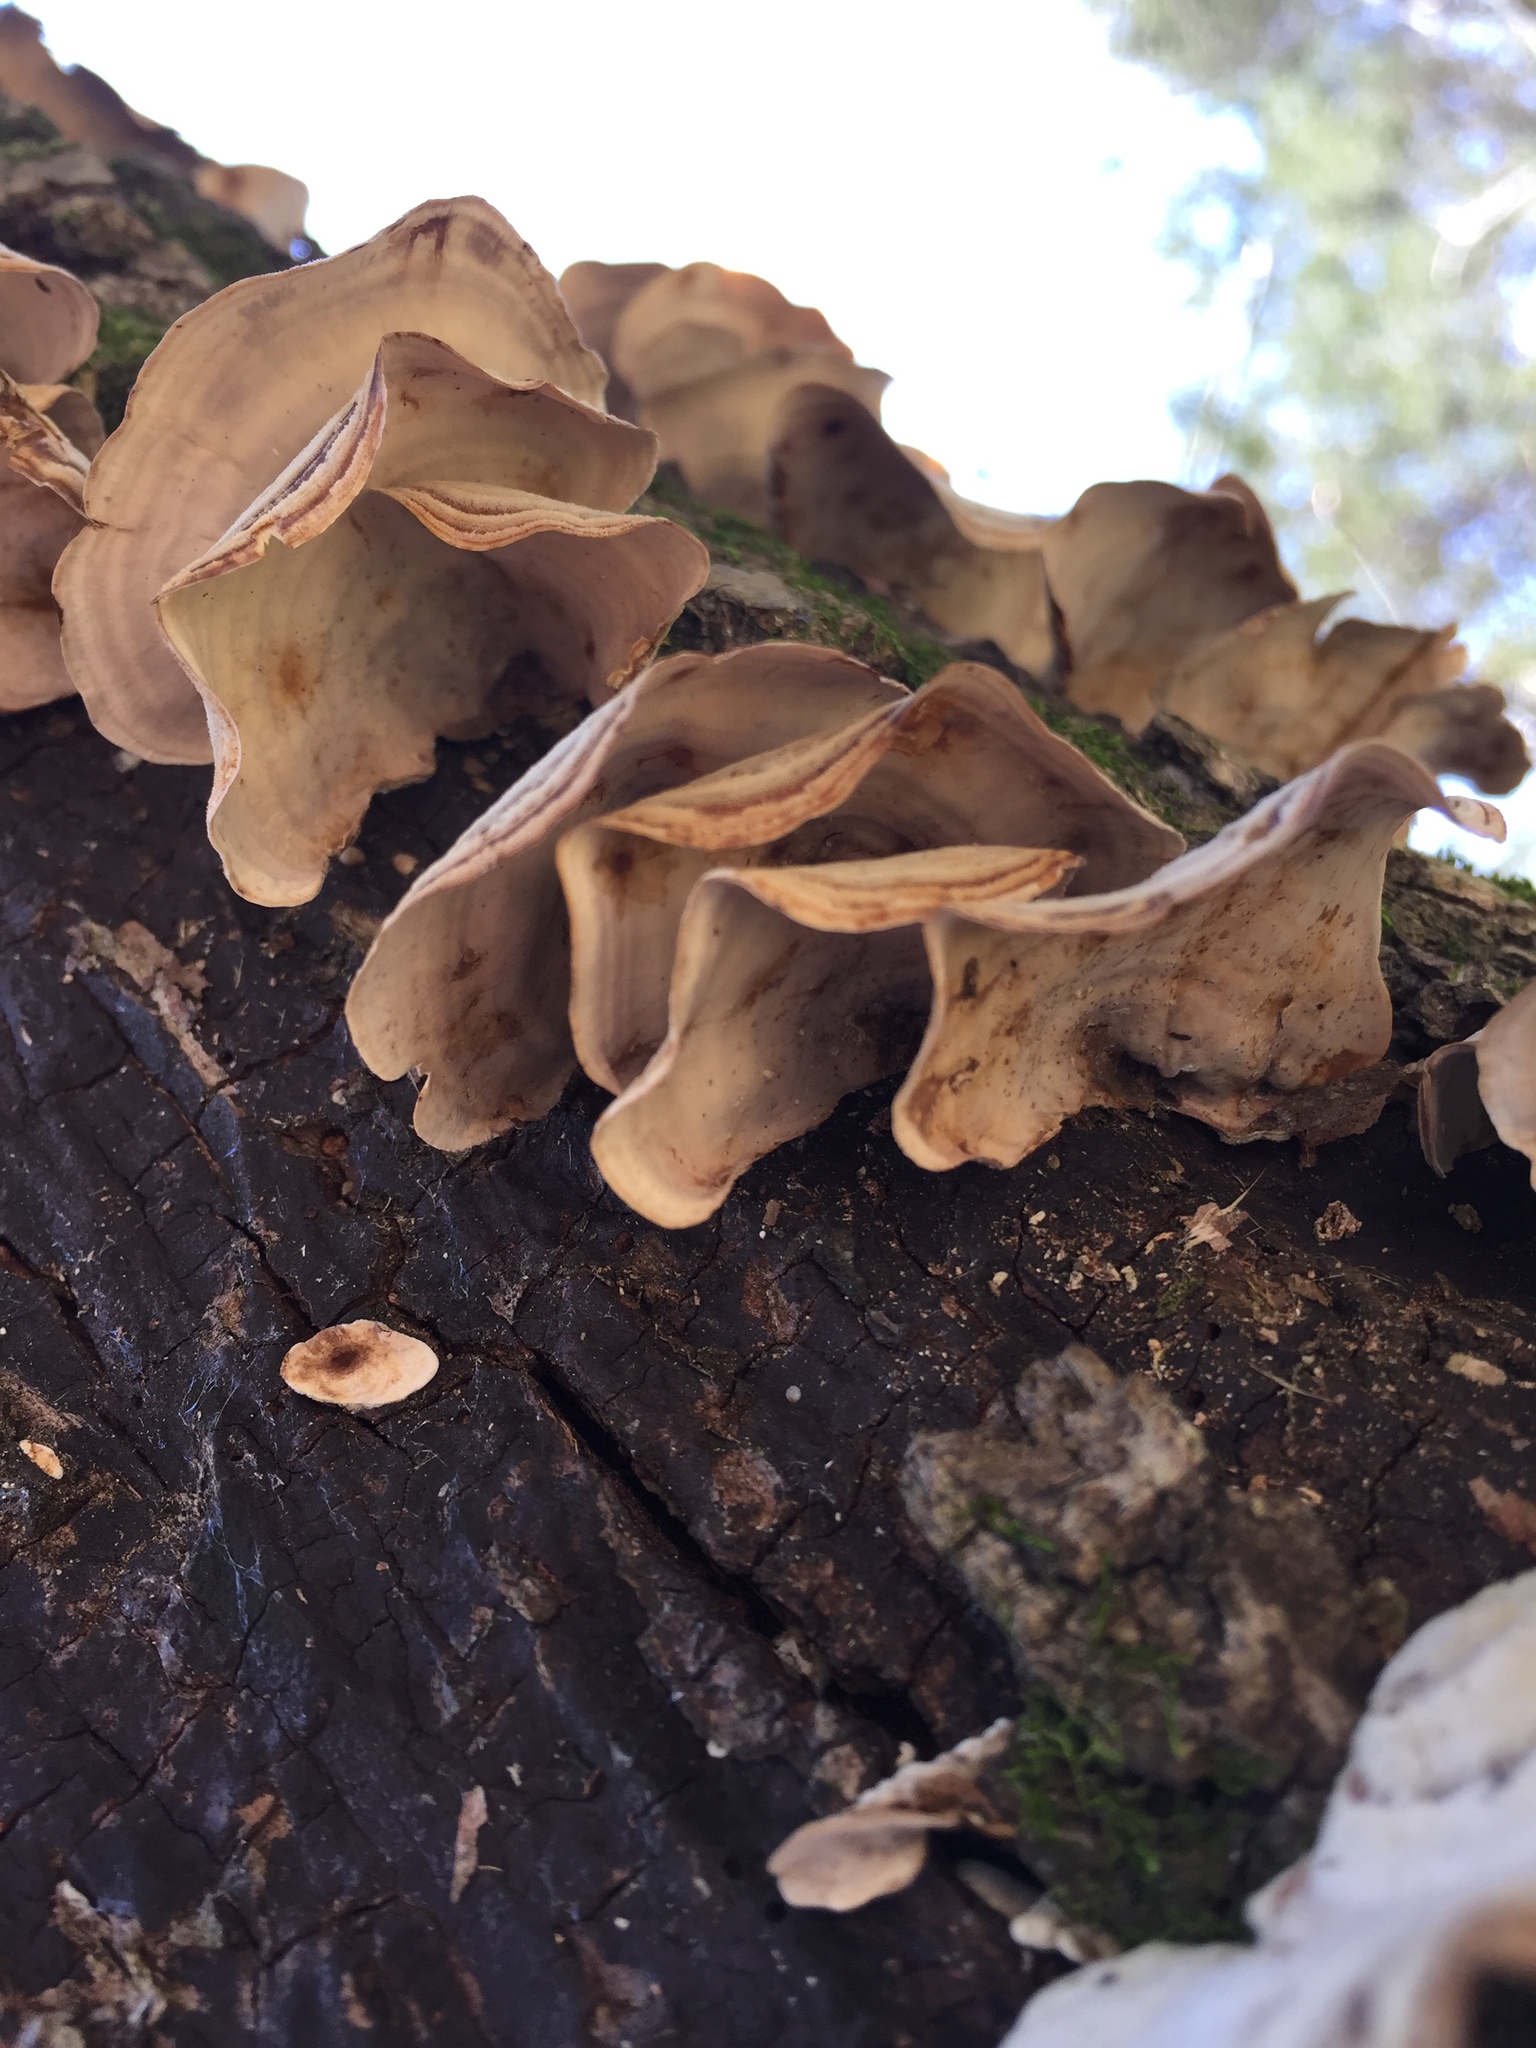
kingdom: Fungi
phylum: Basidiomycota
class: Agaricomycetes
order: Russulales
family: Stereaceae
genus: Stereum
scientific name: Stereum lobatum
